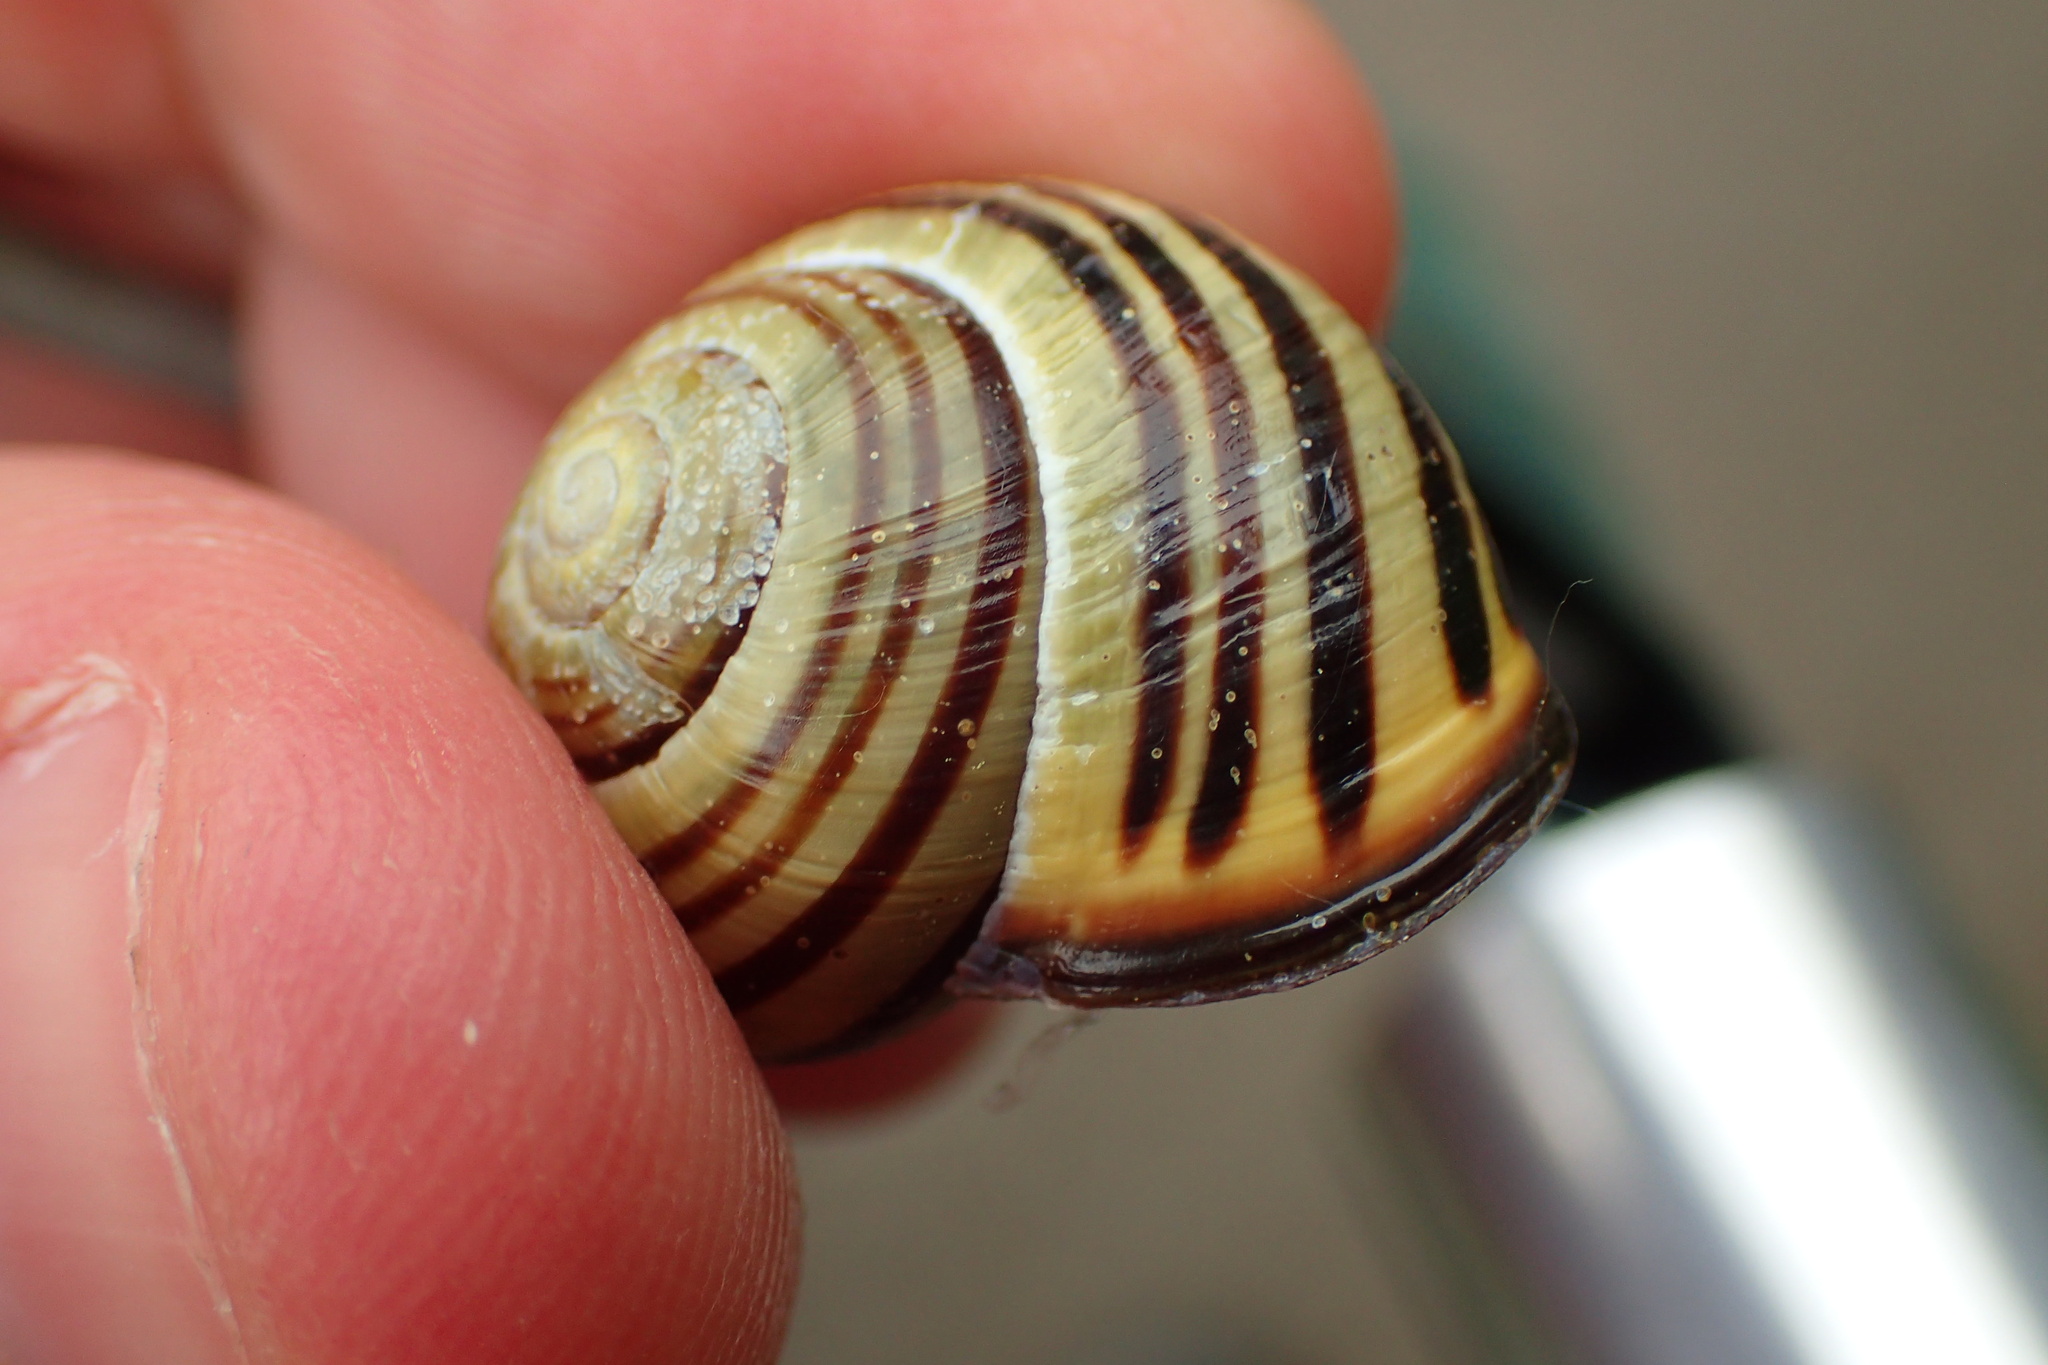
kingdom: Animalia
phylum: Mollusca
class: Gastropoda
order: Stylommatophora
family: Helicidae
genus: Cepaea
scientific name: Cepaea nemoralis
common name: Grovesnail
